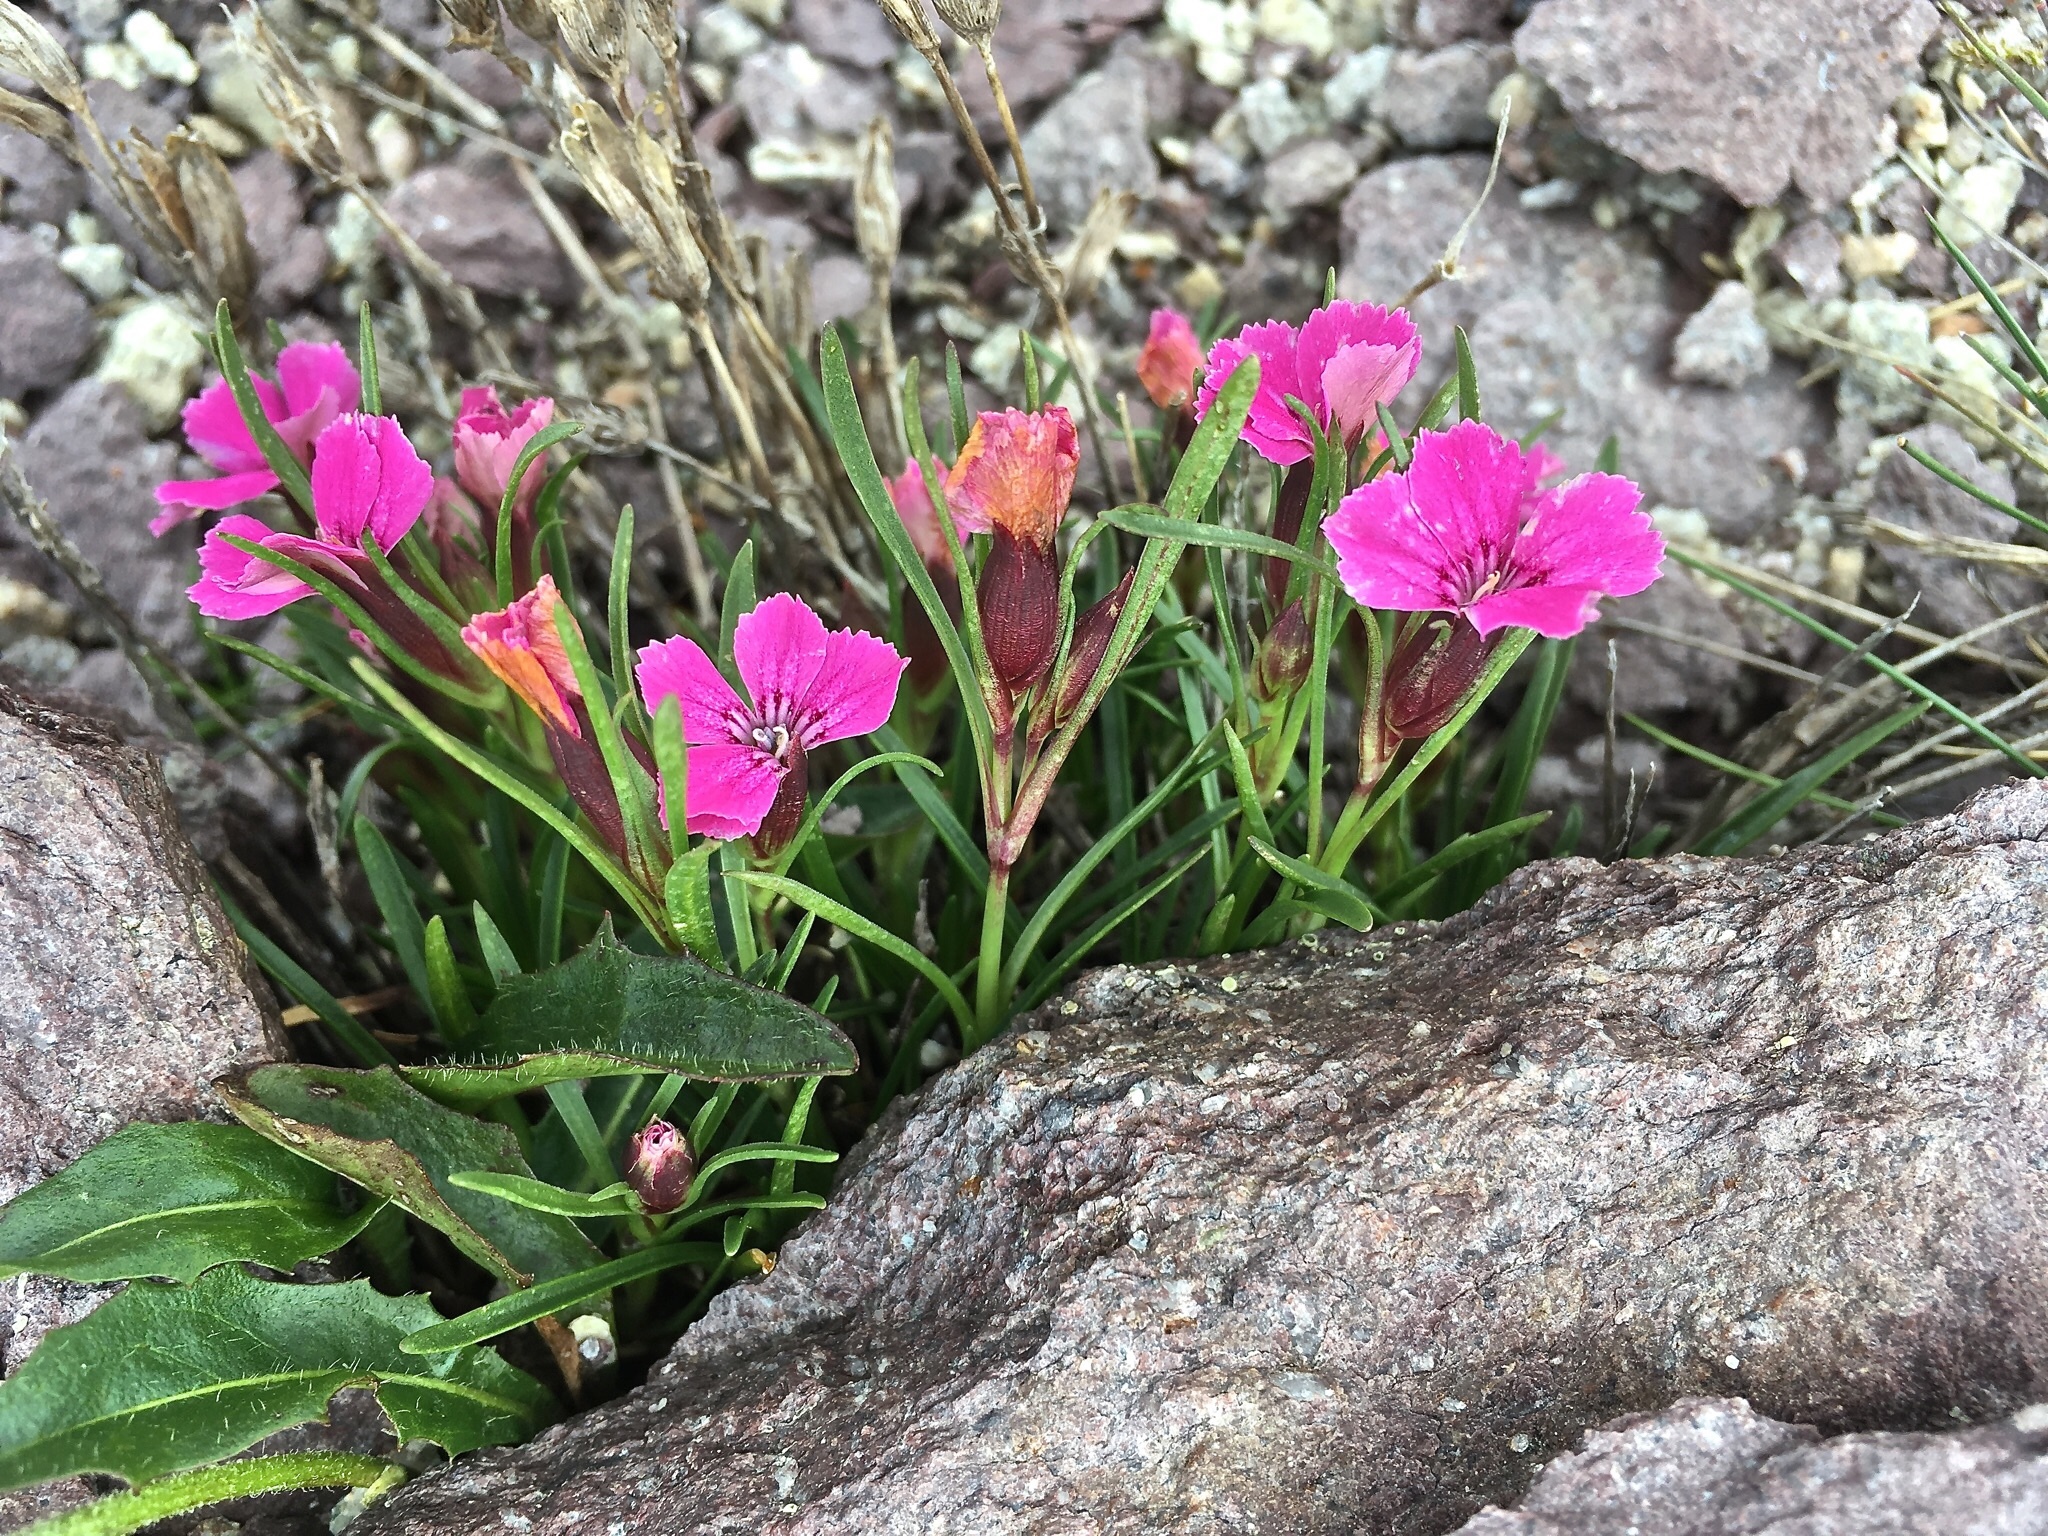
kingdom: Plantae
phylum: Tracheophyta
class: Magnoliopsida
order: Caryophyllales
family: Caryophyllaceae
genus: Dianthus
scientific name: Dianthus glacialis
